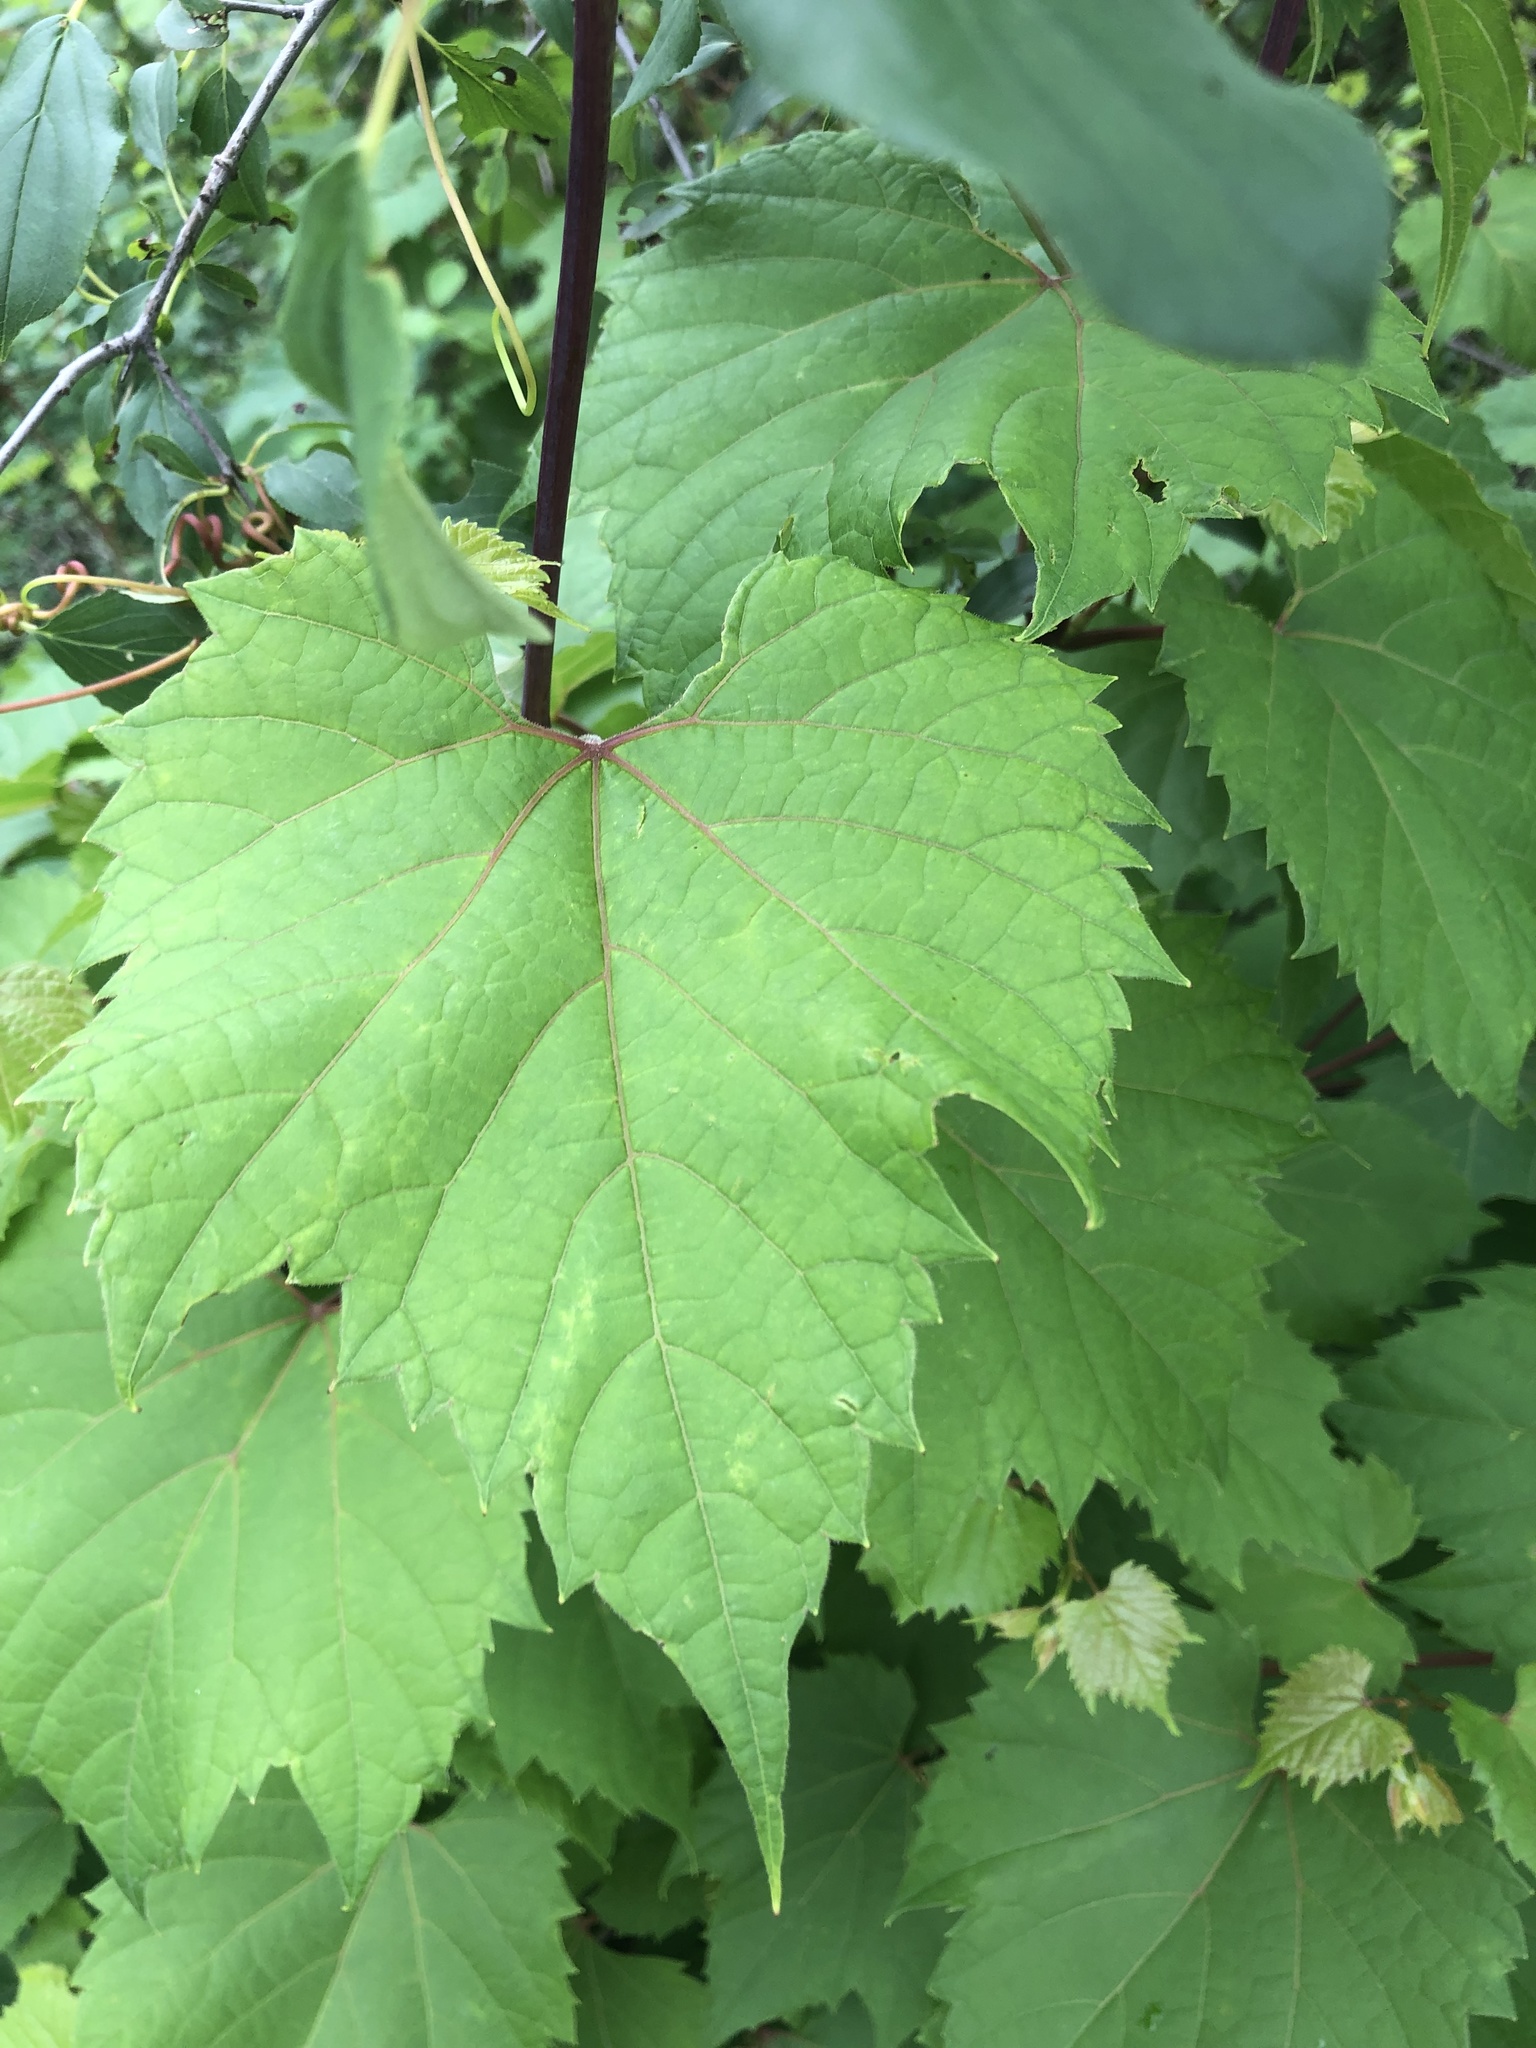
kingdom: Plantae
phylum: Tracheophyta
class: Magnoliopsida
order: Vitales
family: Vitaceae
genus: Vitis
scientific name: Vitis riparia
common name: Frost grape
